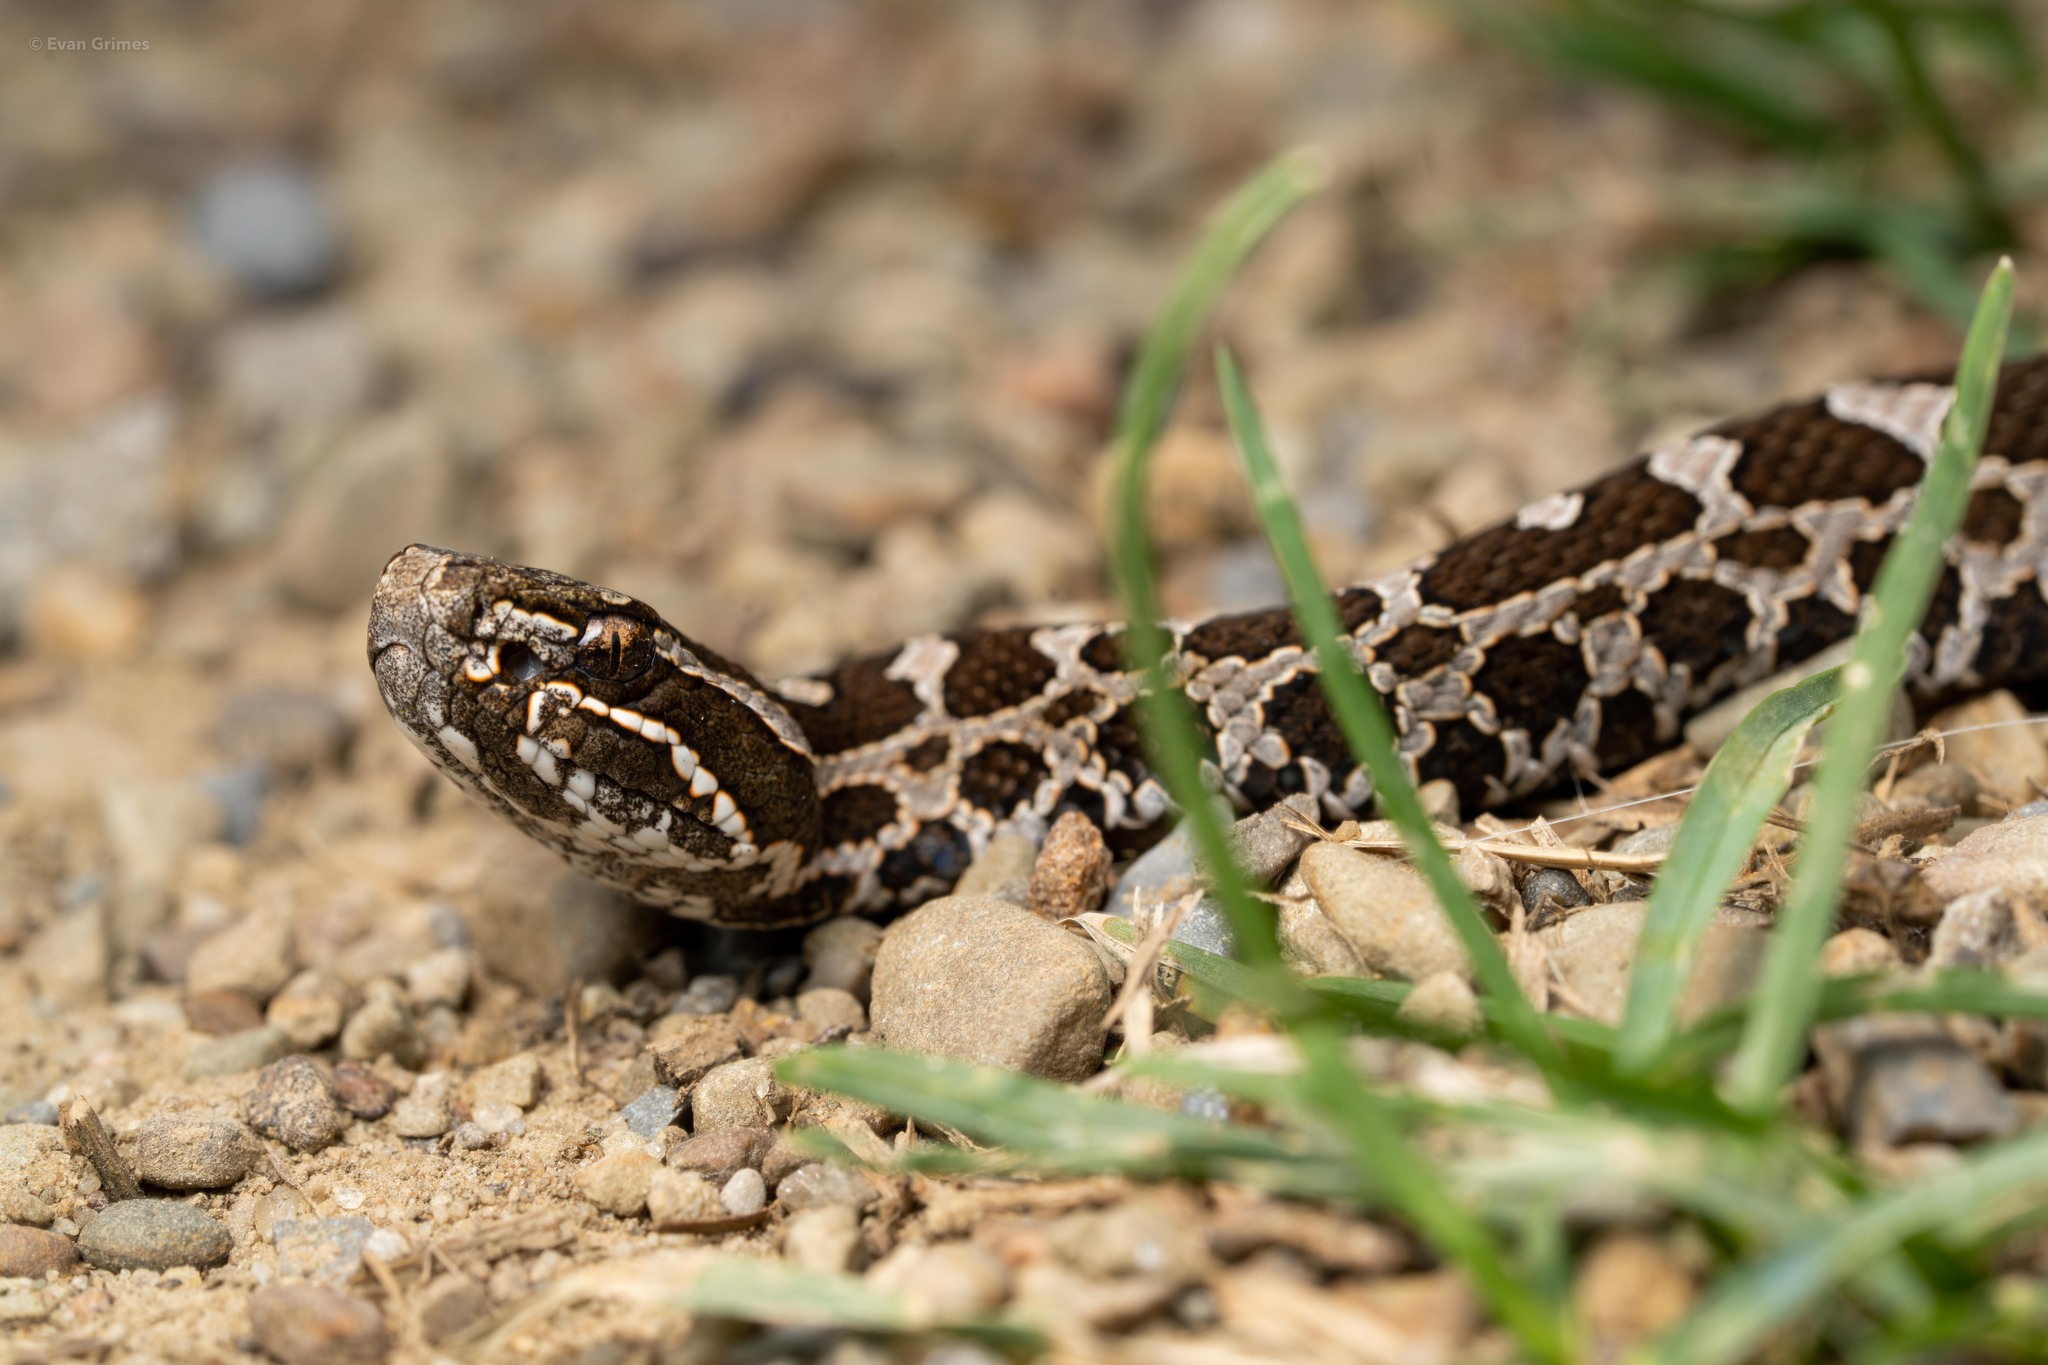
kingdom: Animalia
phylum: Chordata
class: Squamata
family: Viperidae
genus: Sistrurus
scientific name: Sistrurus catenatus
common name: Massasauga
